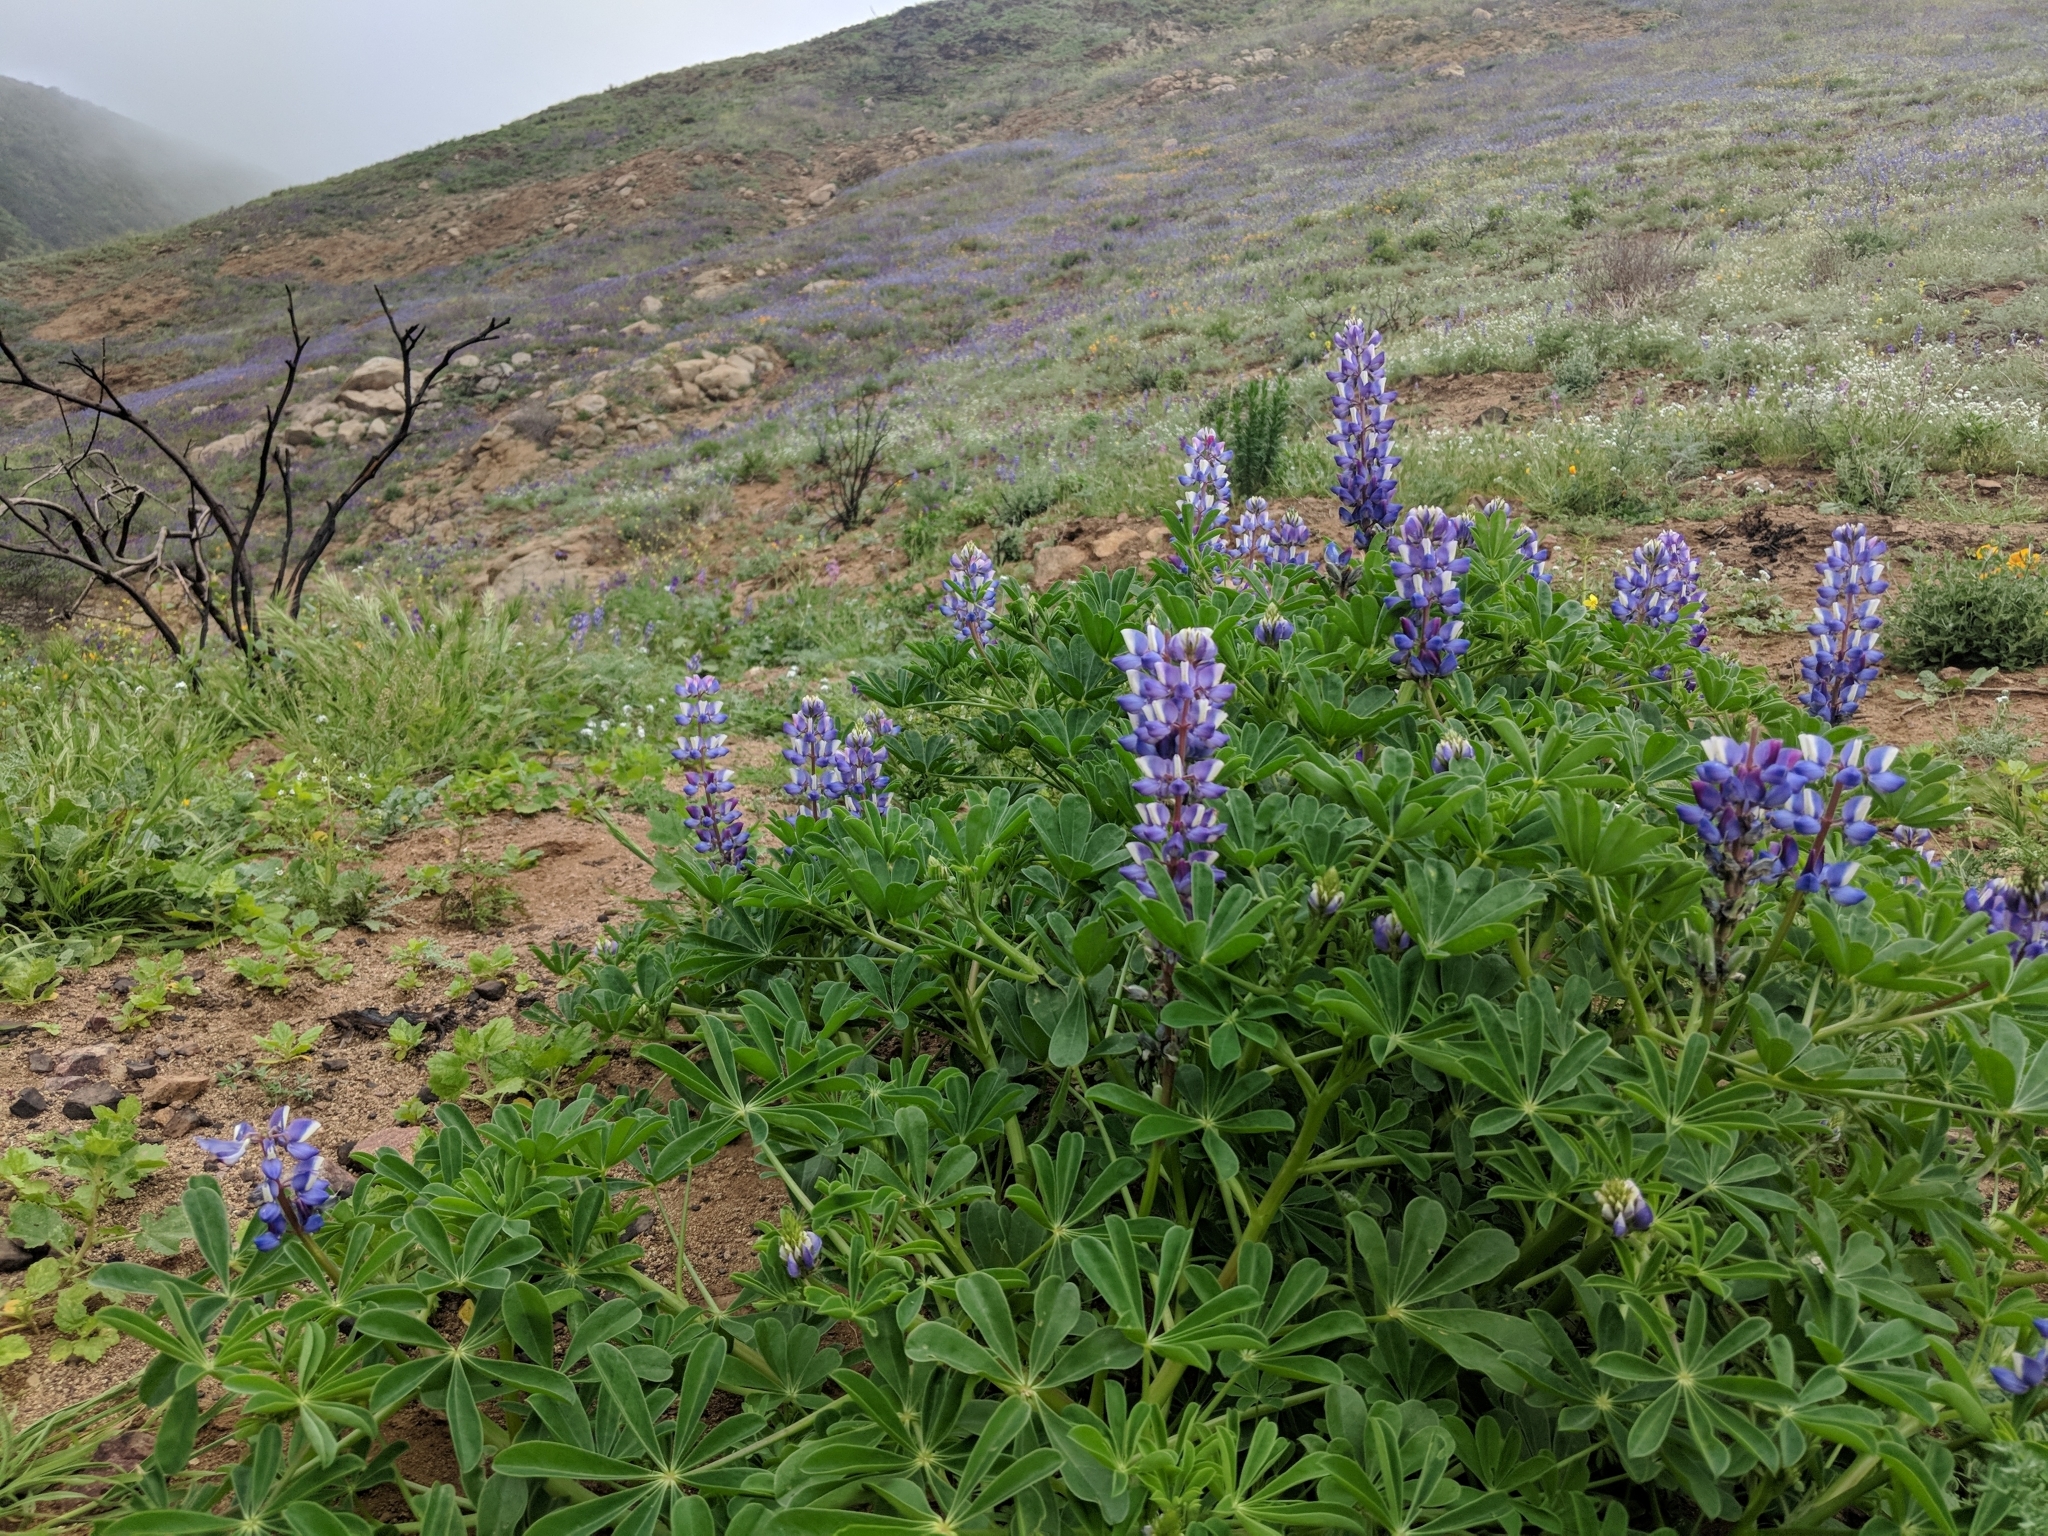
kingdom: Plantae
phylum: Tracheophyta
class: Magnoliopsida
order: Fabales
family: Fabaceae
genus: Lupinus
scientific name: Lupinus succulentus
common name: Arroyo lupine
